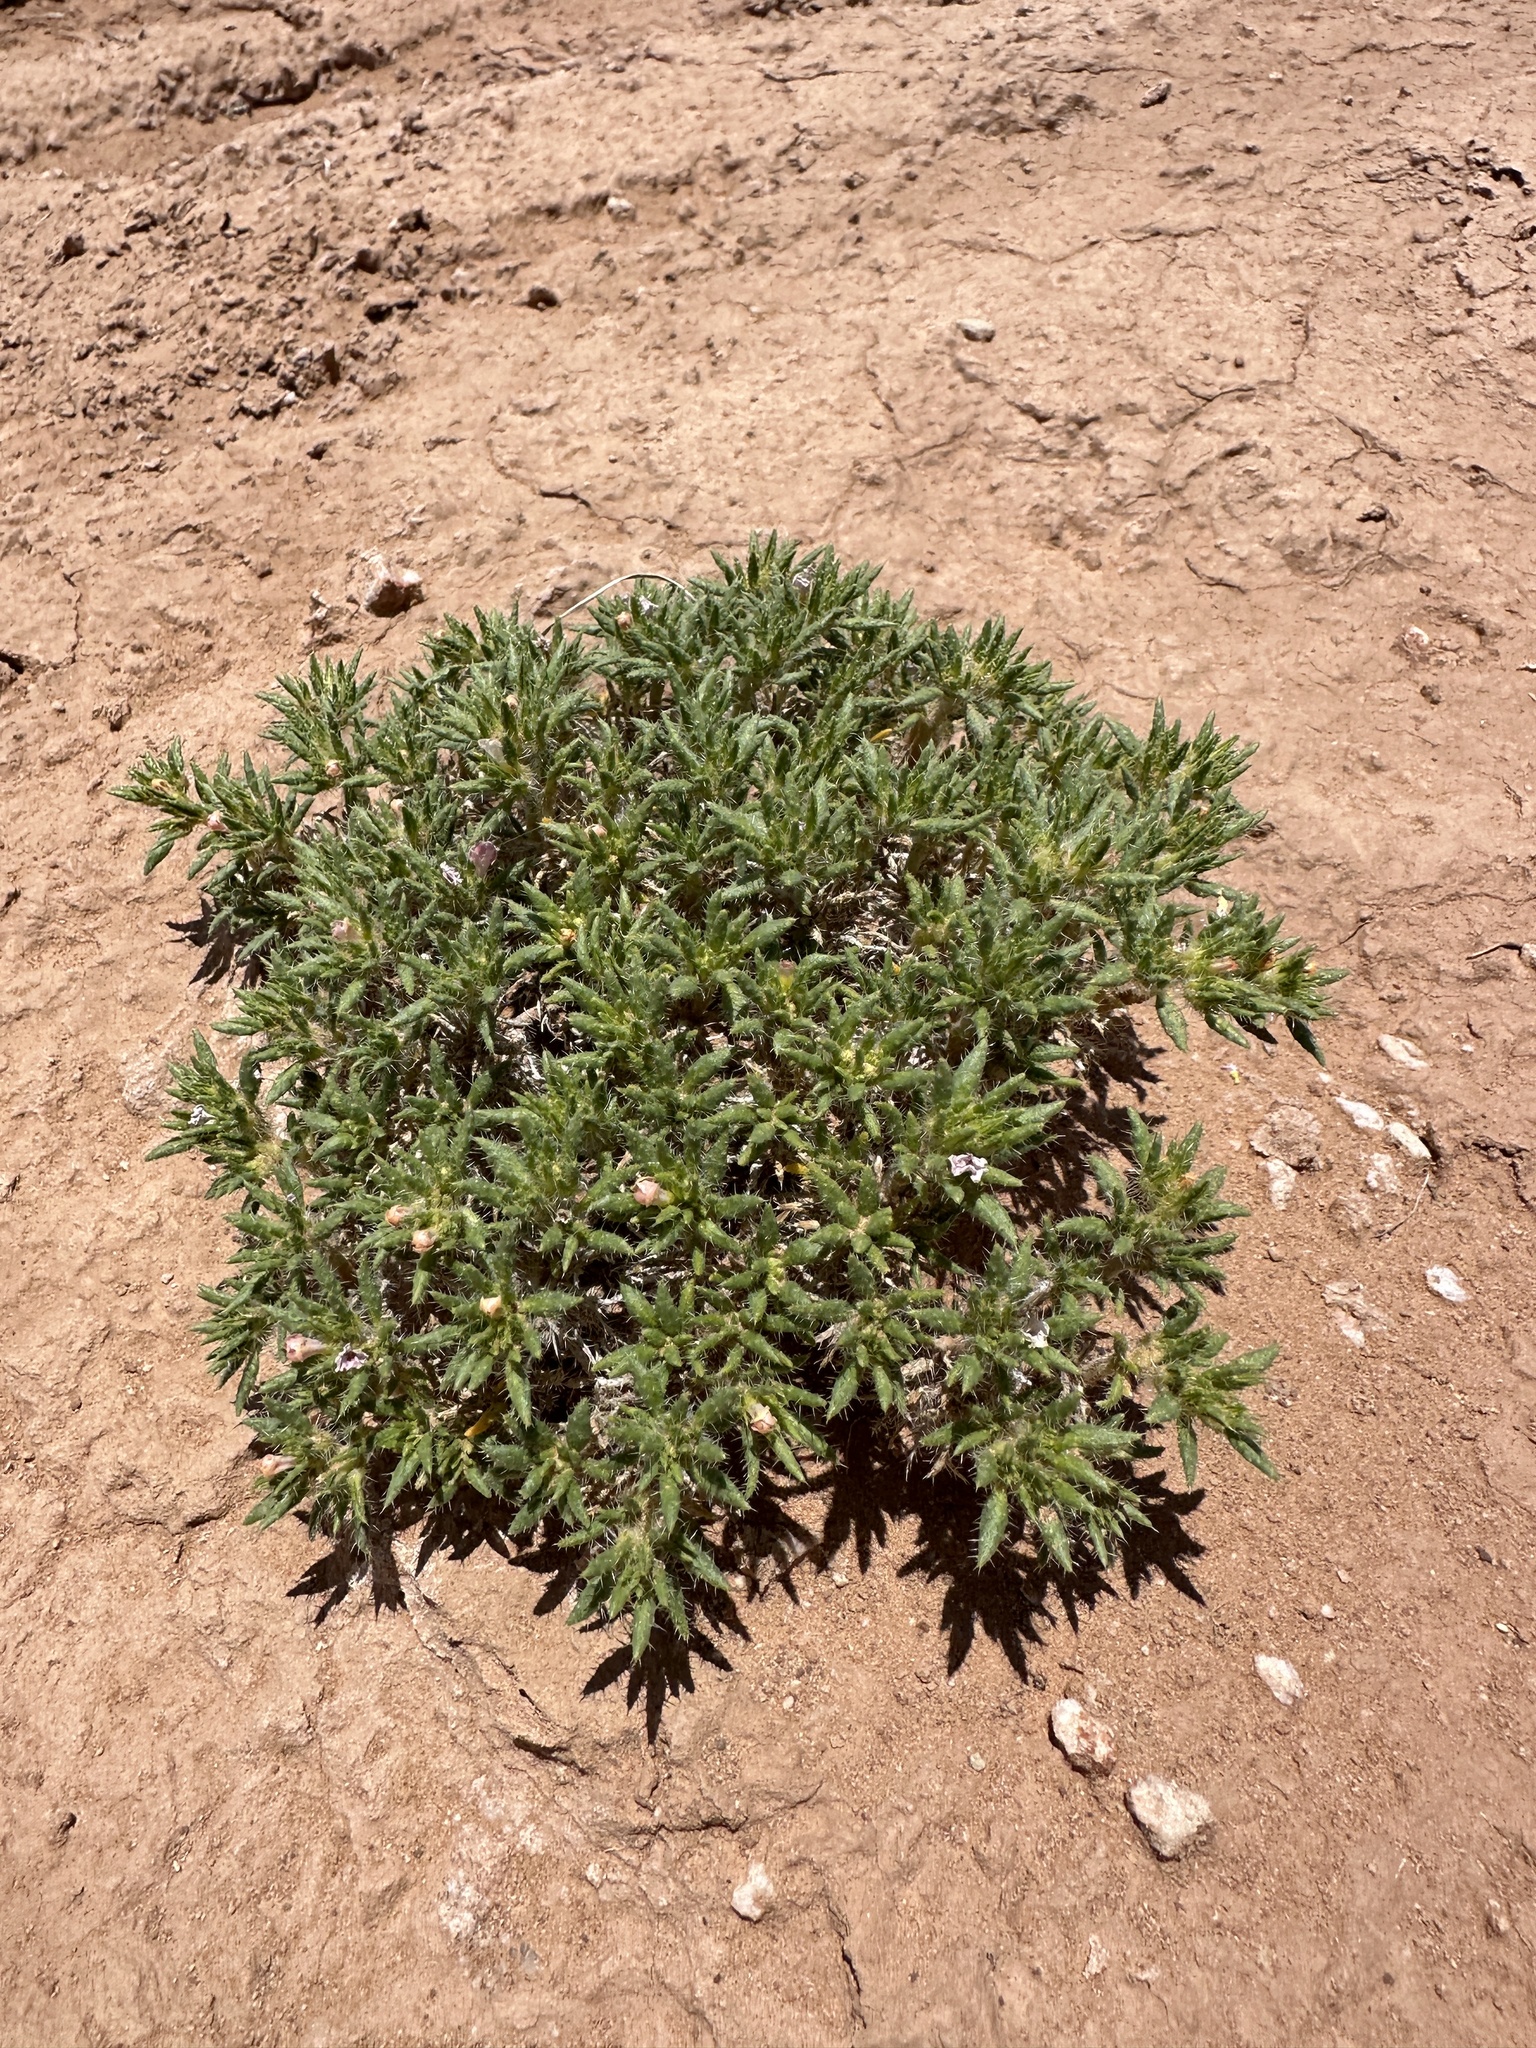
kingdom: Plantae
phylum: Tracheophyta
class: Magnoliopsida
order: Boraginales
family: Ehretiaceae
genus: Tiquilia
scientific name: Tiquilia latior
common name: Matted tiquilia
